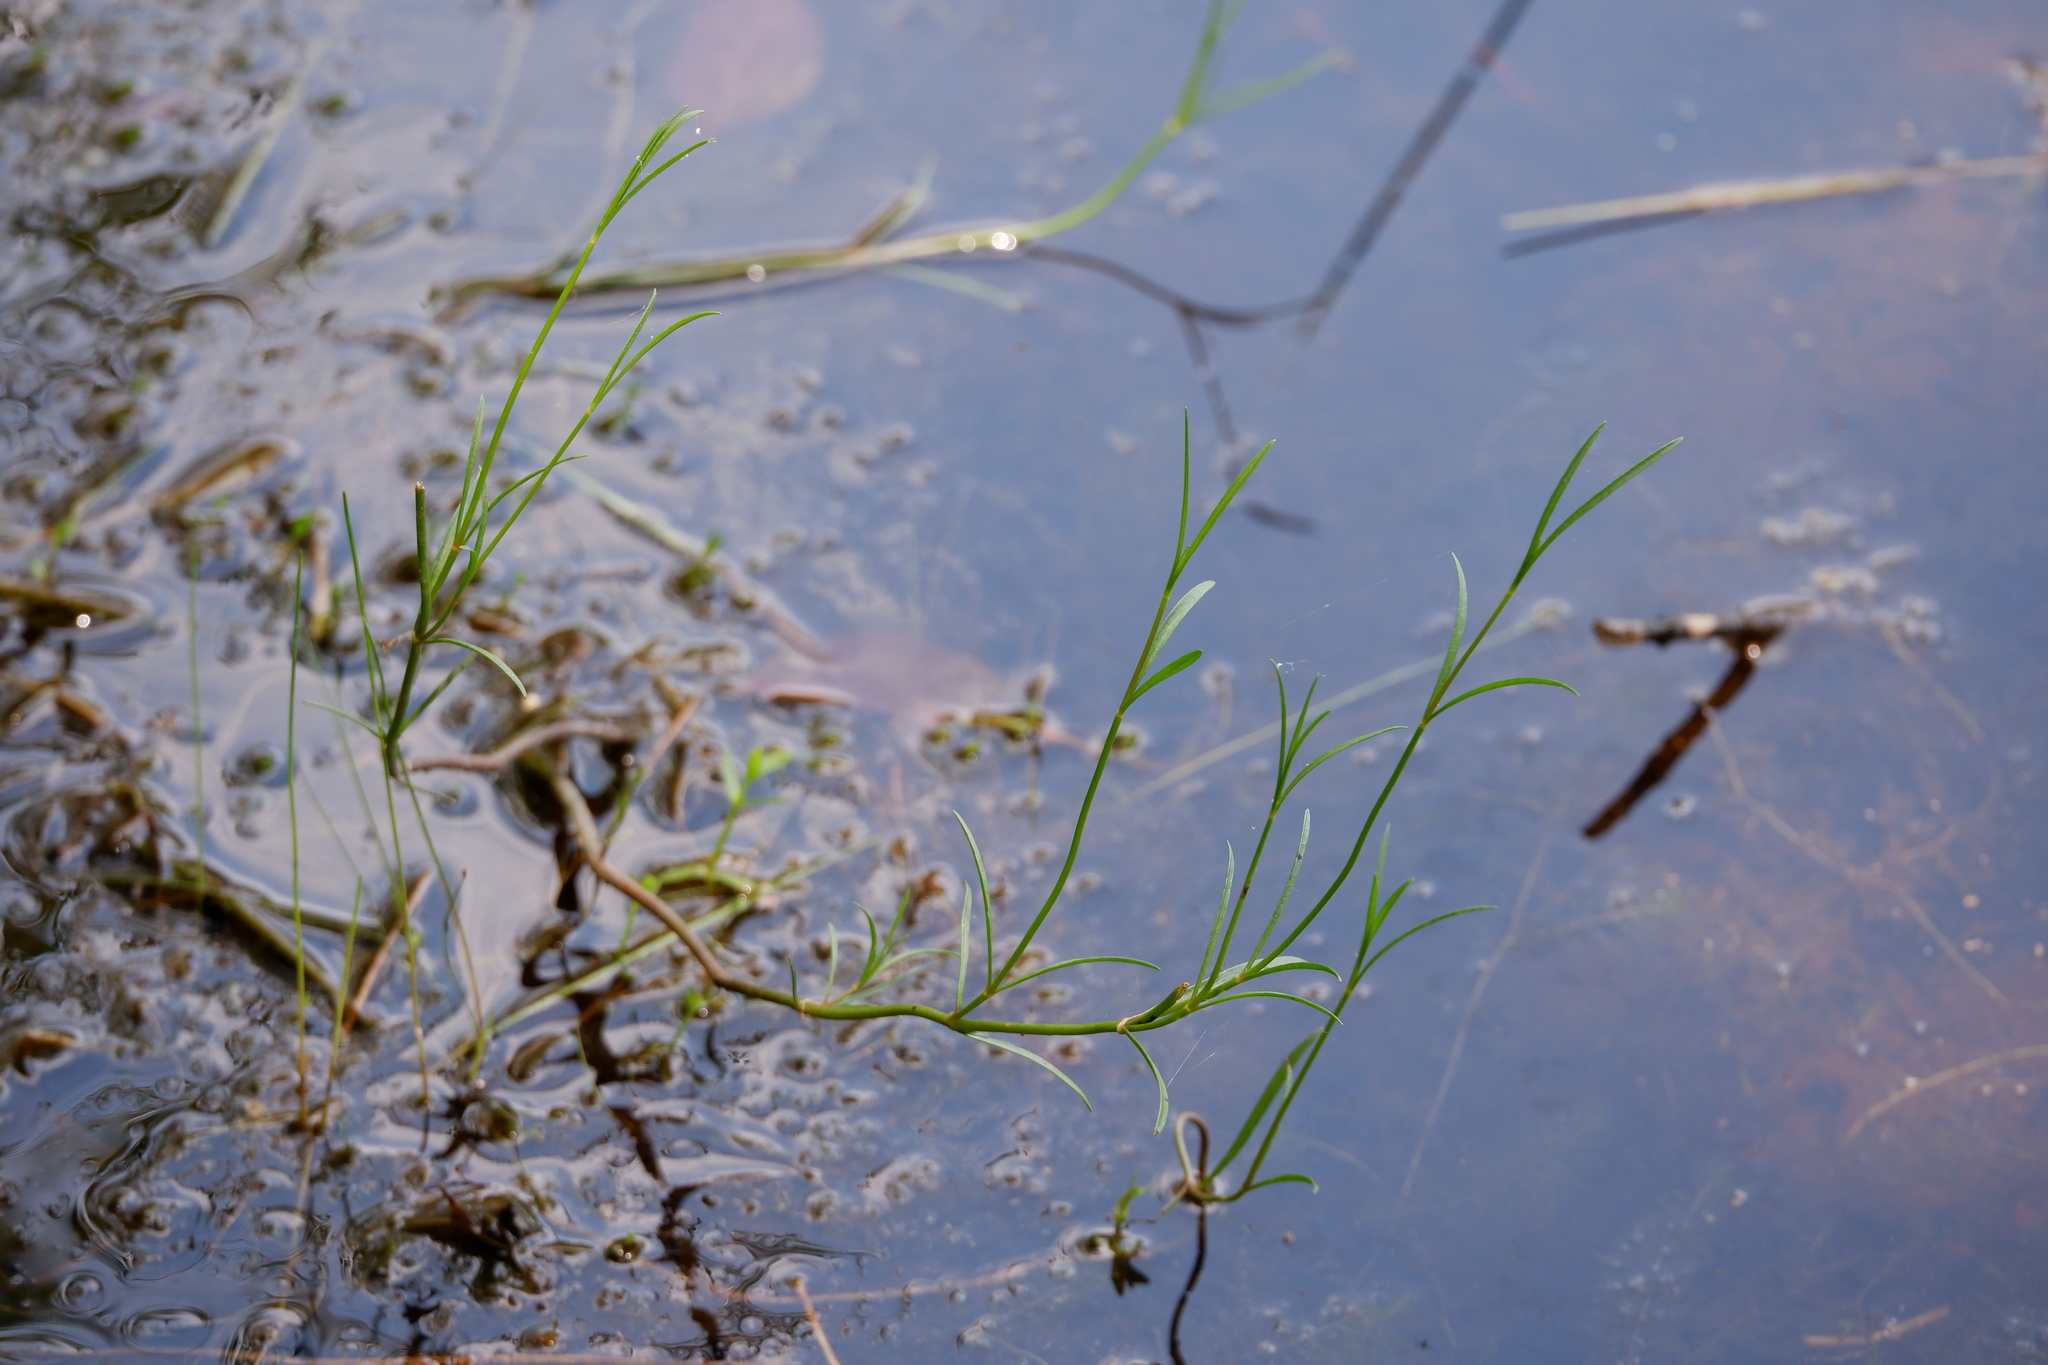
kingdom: Plantae
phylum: Tracheophyta
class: Magnoliopsida
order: Asterales
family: Asteraceae
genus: Coreopsis
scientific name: Coreopsis rosea
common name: Pink coreopsis
